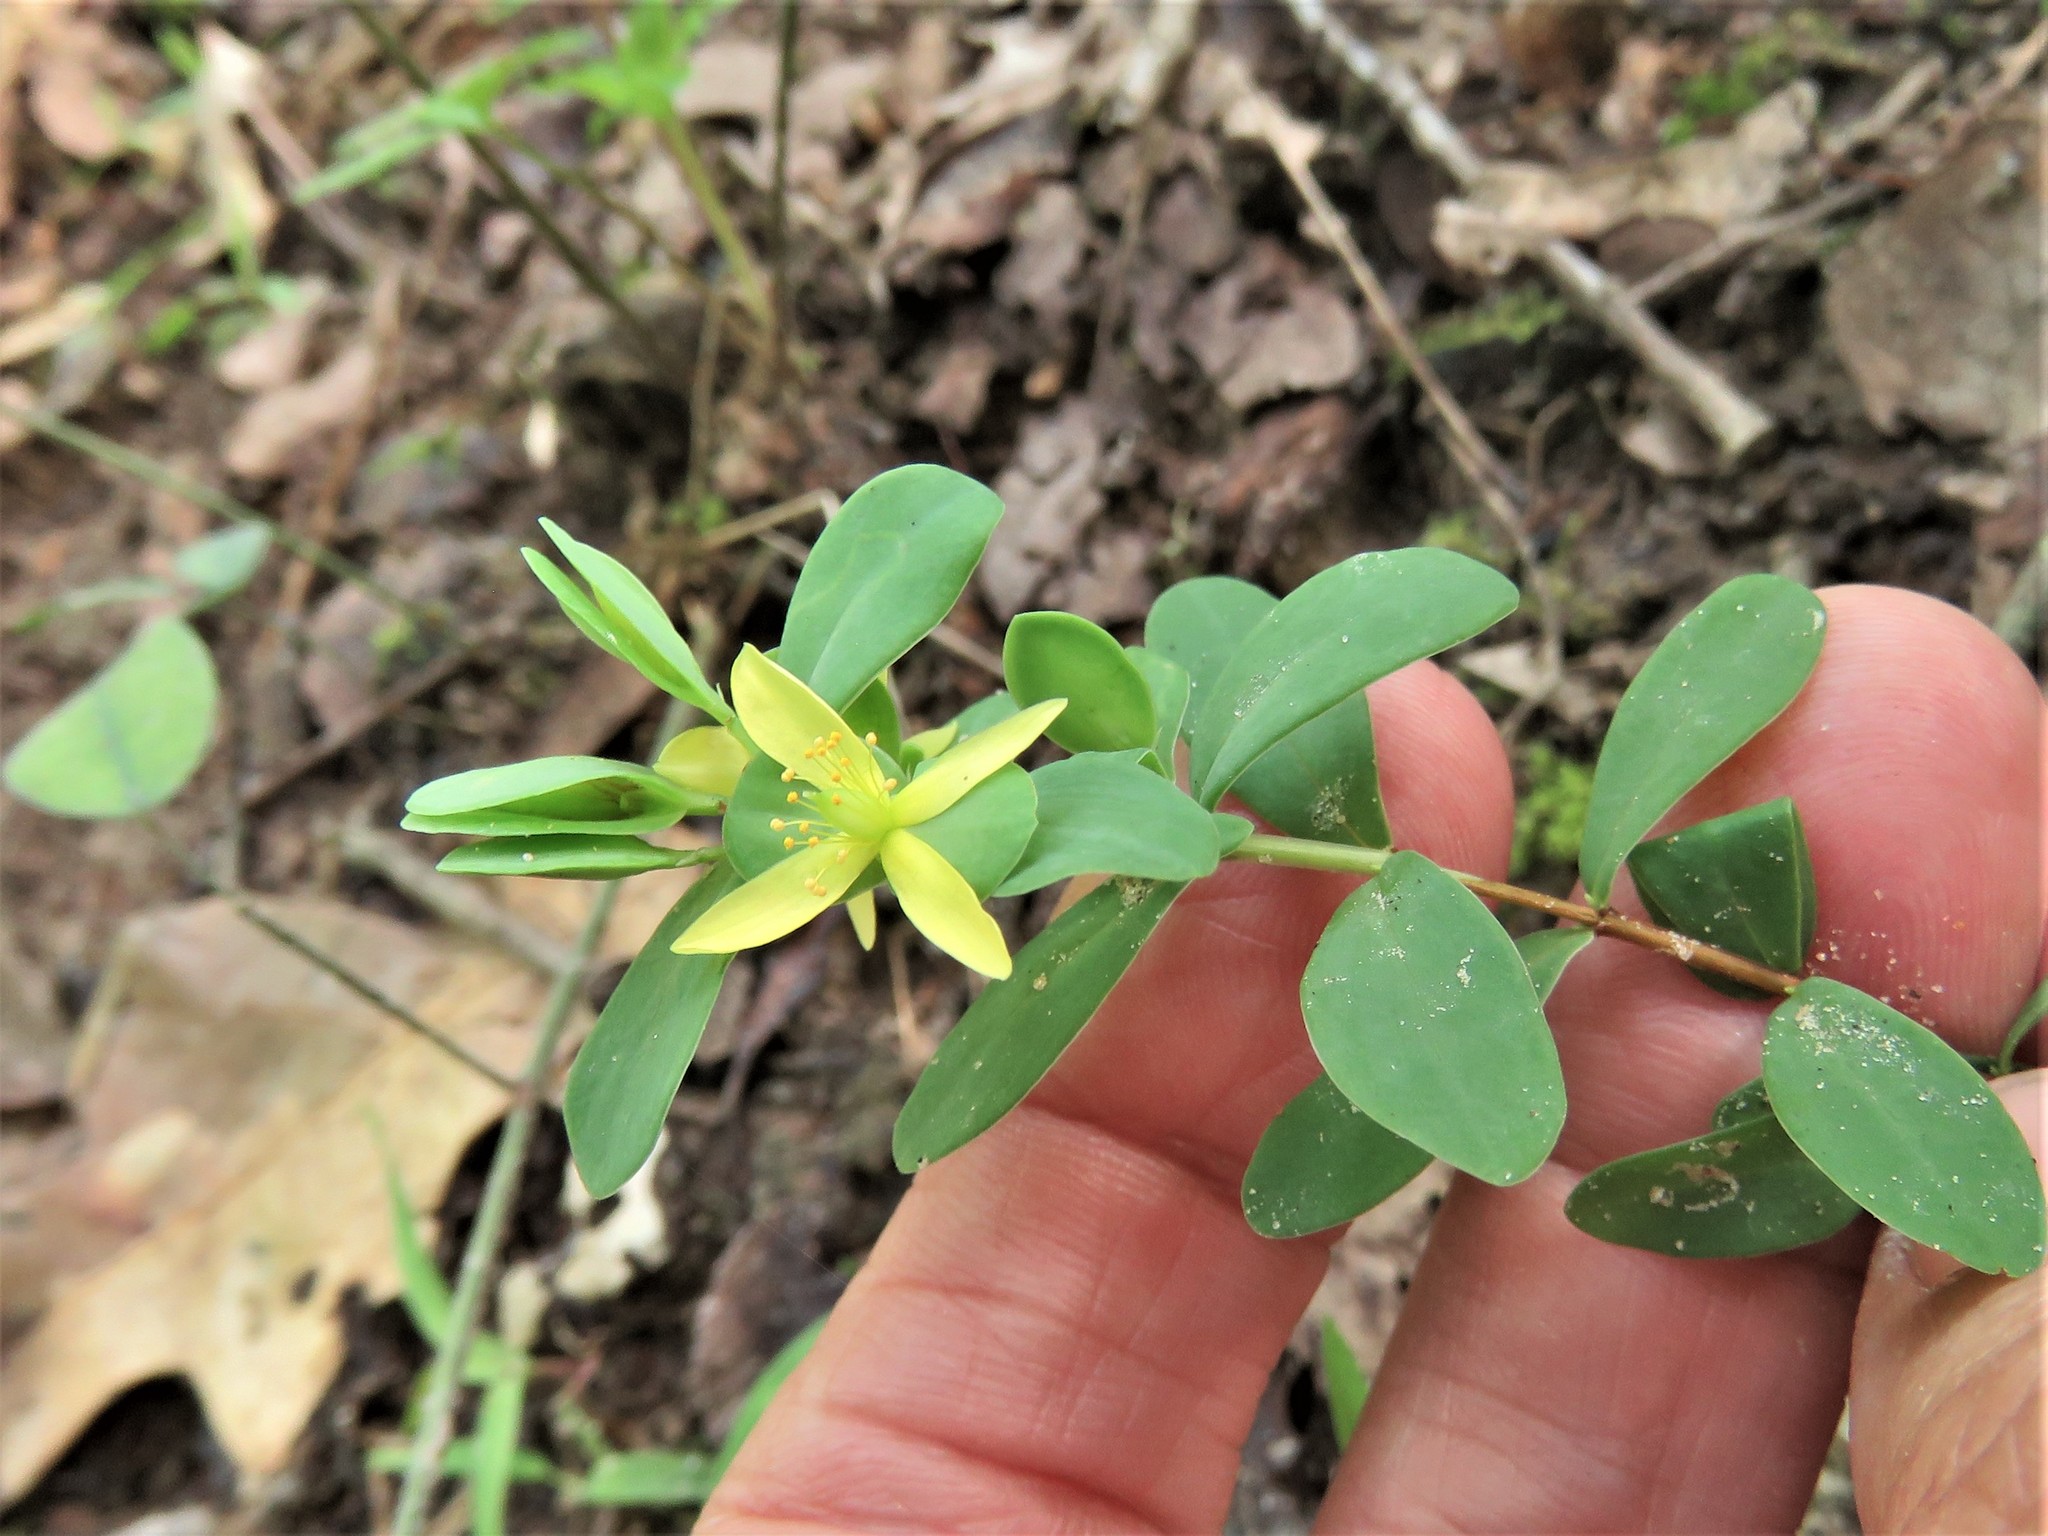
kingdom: Plantae
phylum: Tracheophyta
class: Magnoliopsida
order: Malpighiales
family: Hypericaceae
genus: Hypericum
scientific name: Hypericum hypericoides
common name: St. andrew's cross
